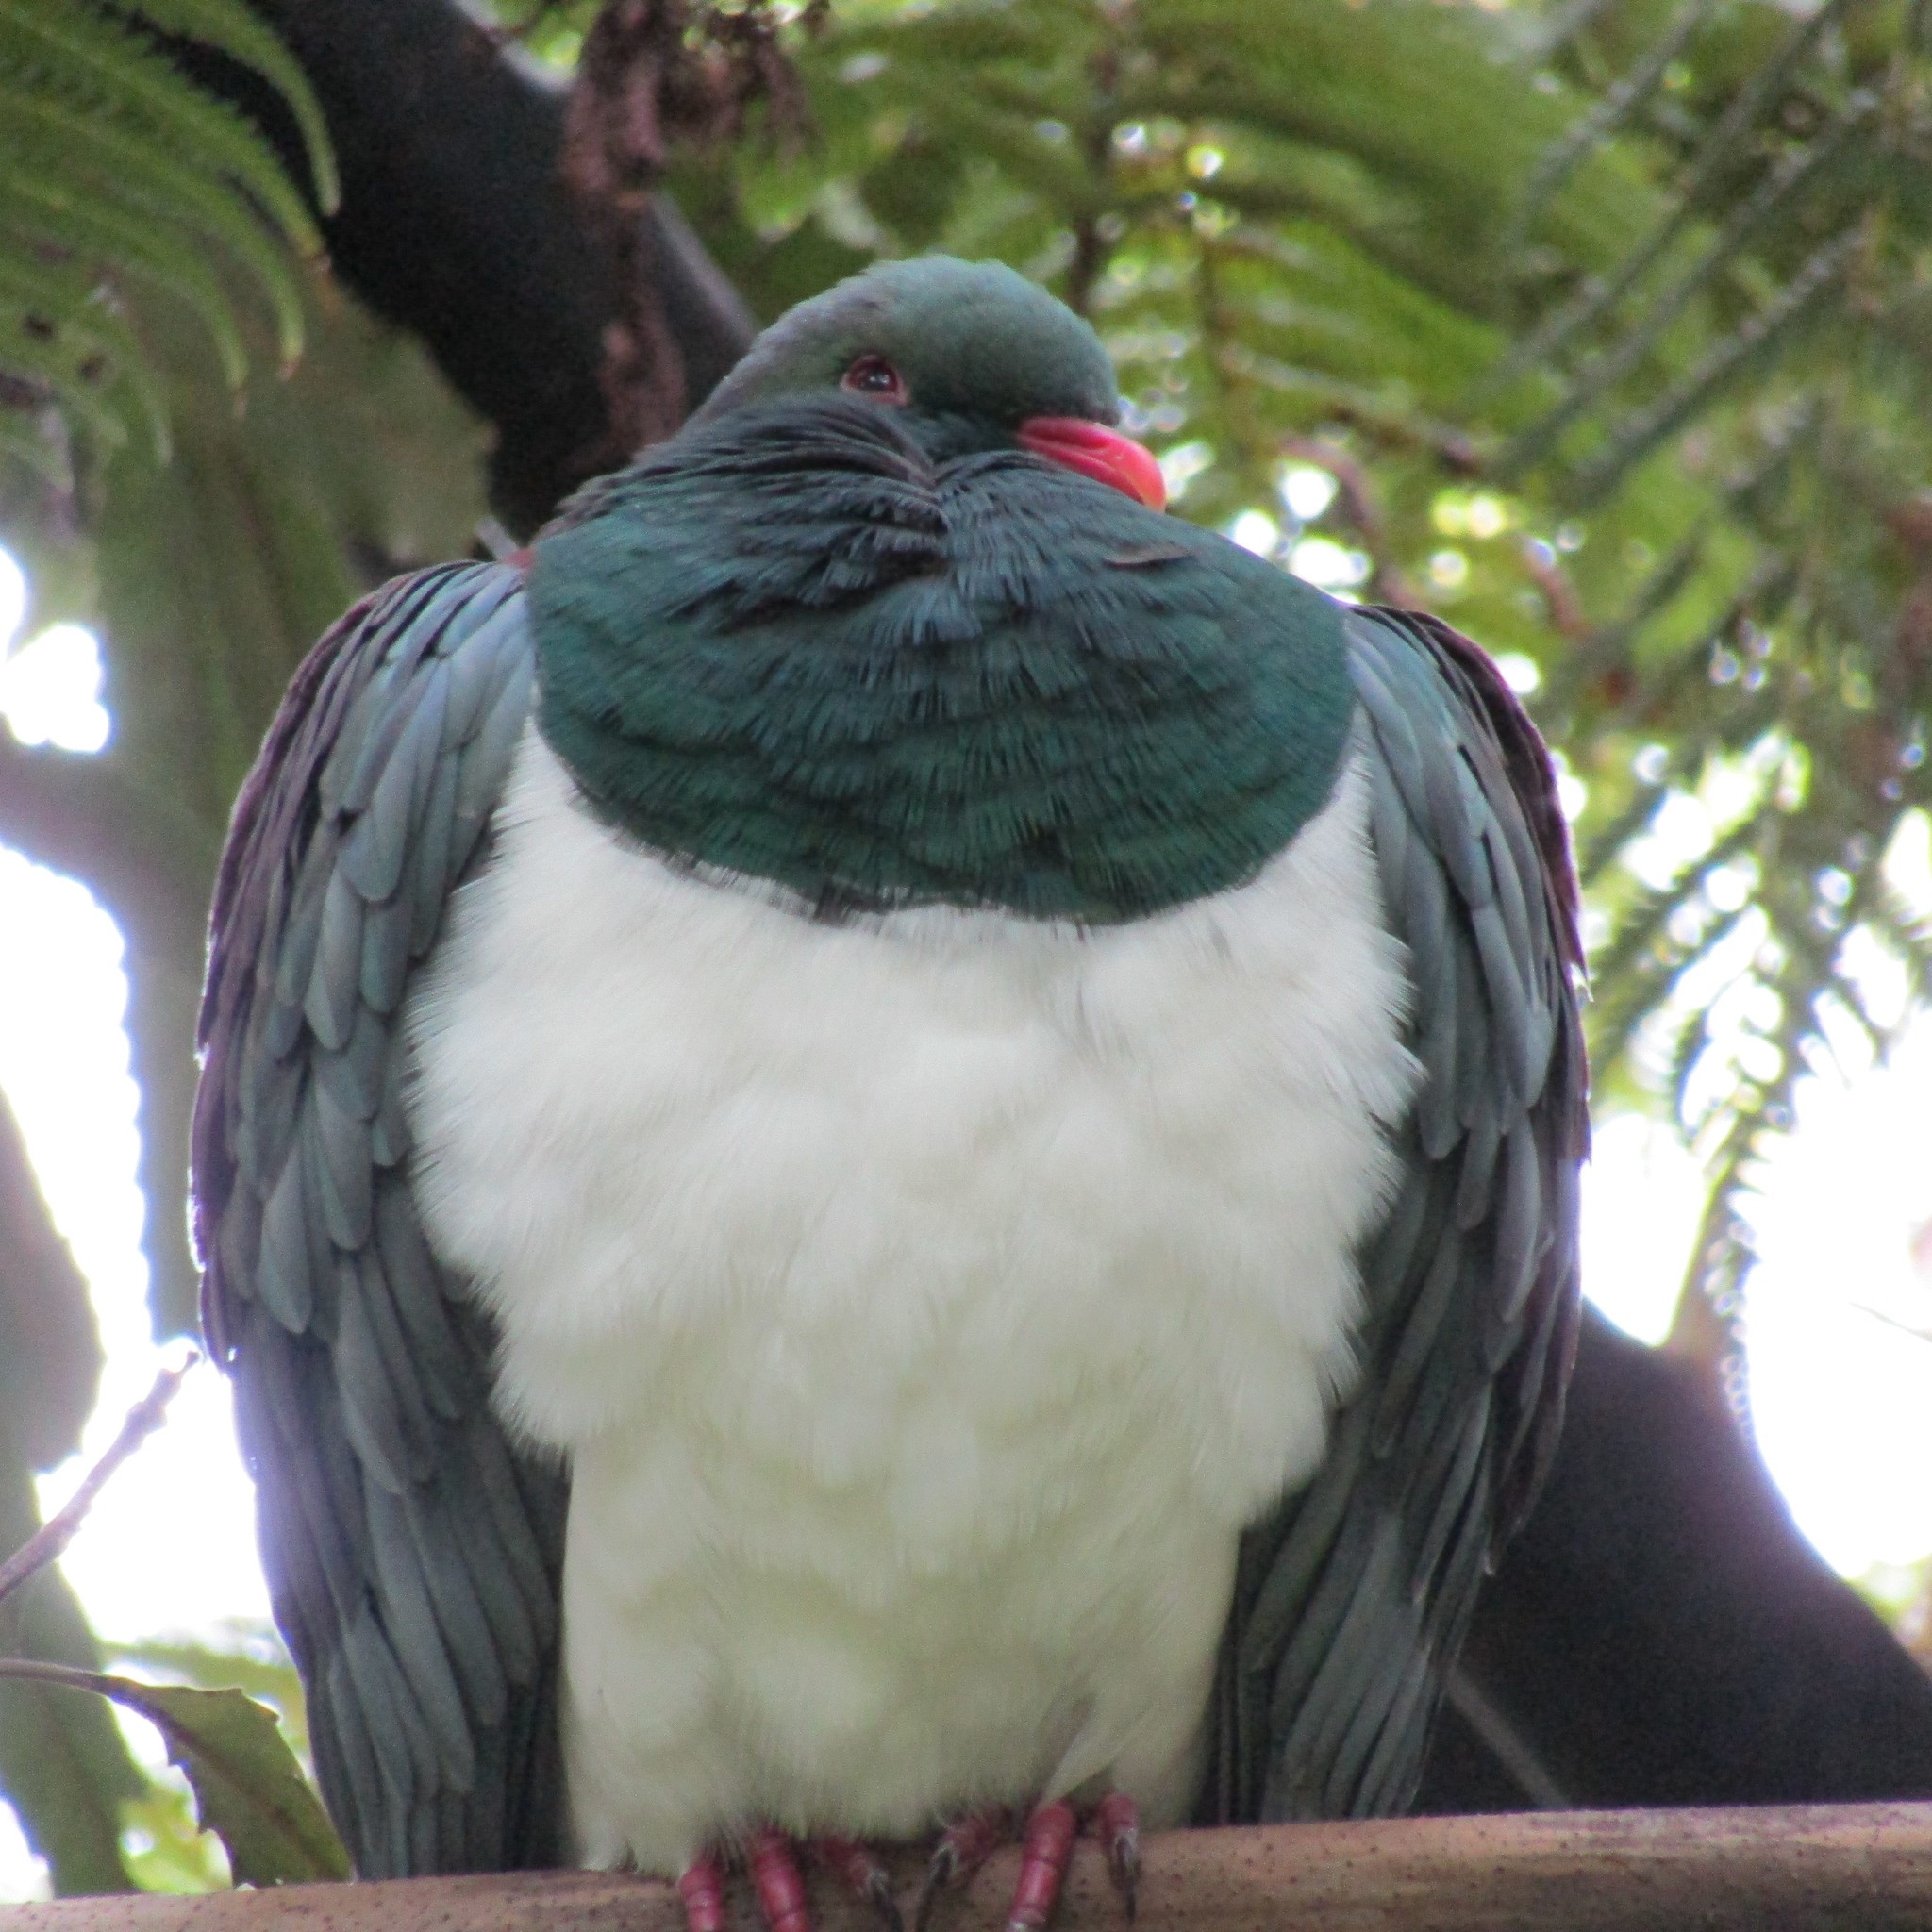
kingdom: Animalia
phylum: Chordata
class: Aves
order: Columbiformes
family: Columbidae
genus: Hemiphaga
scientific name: Hemiphaga novaeseelandiae
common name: New zealand pigeon
